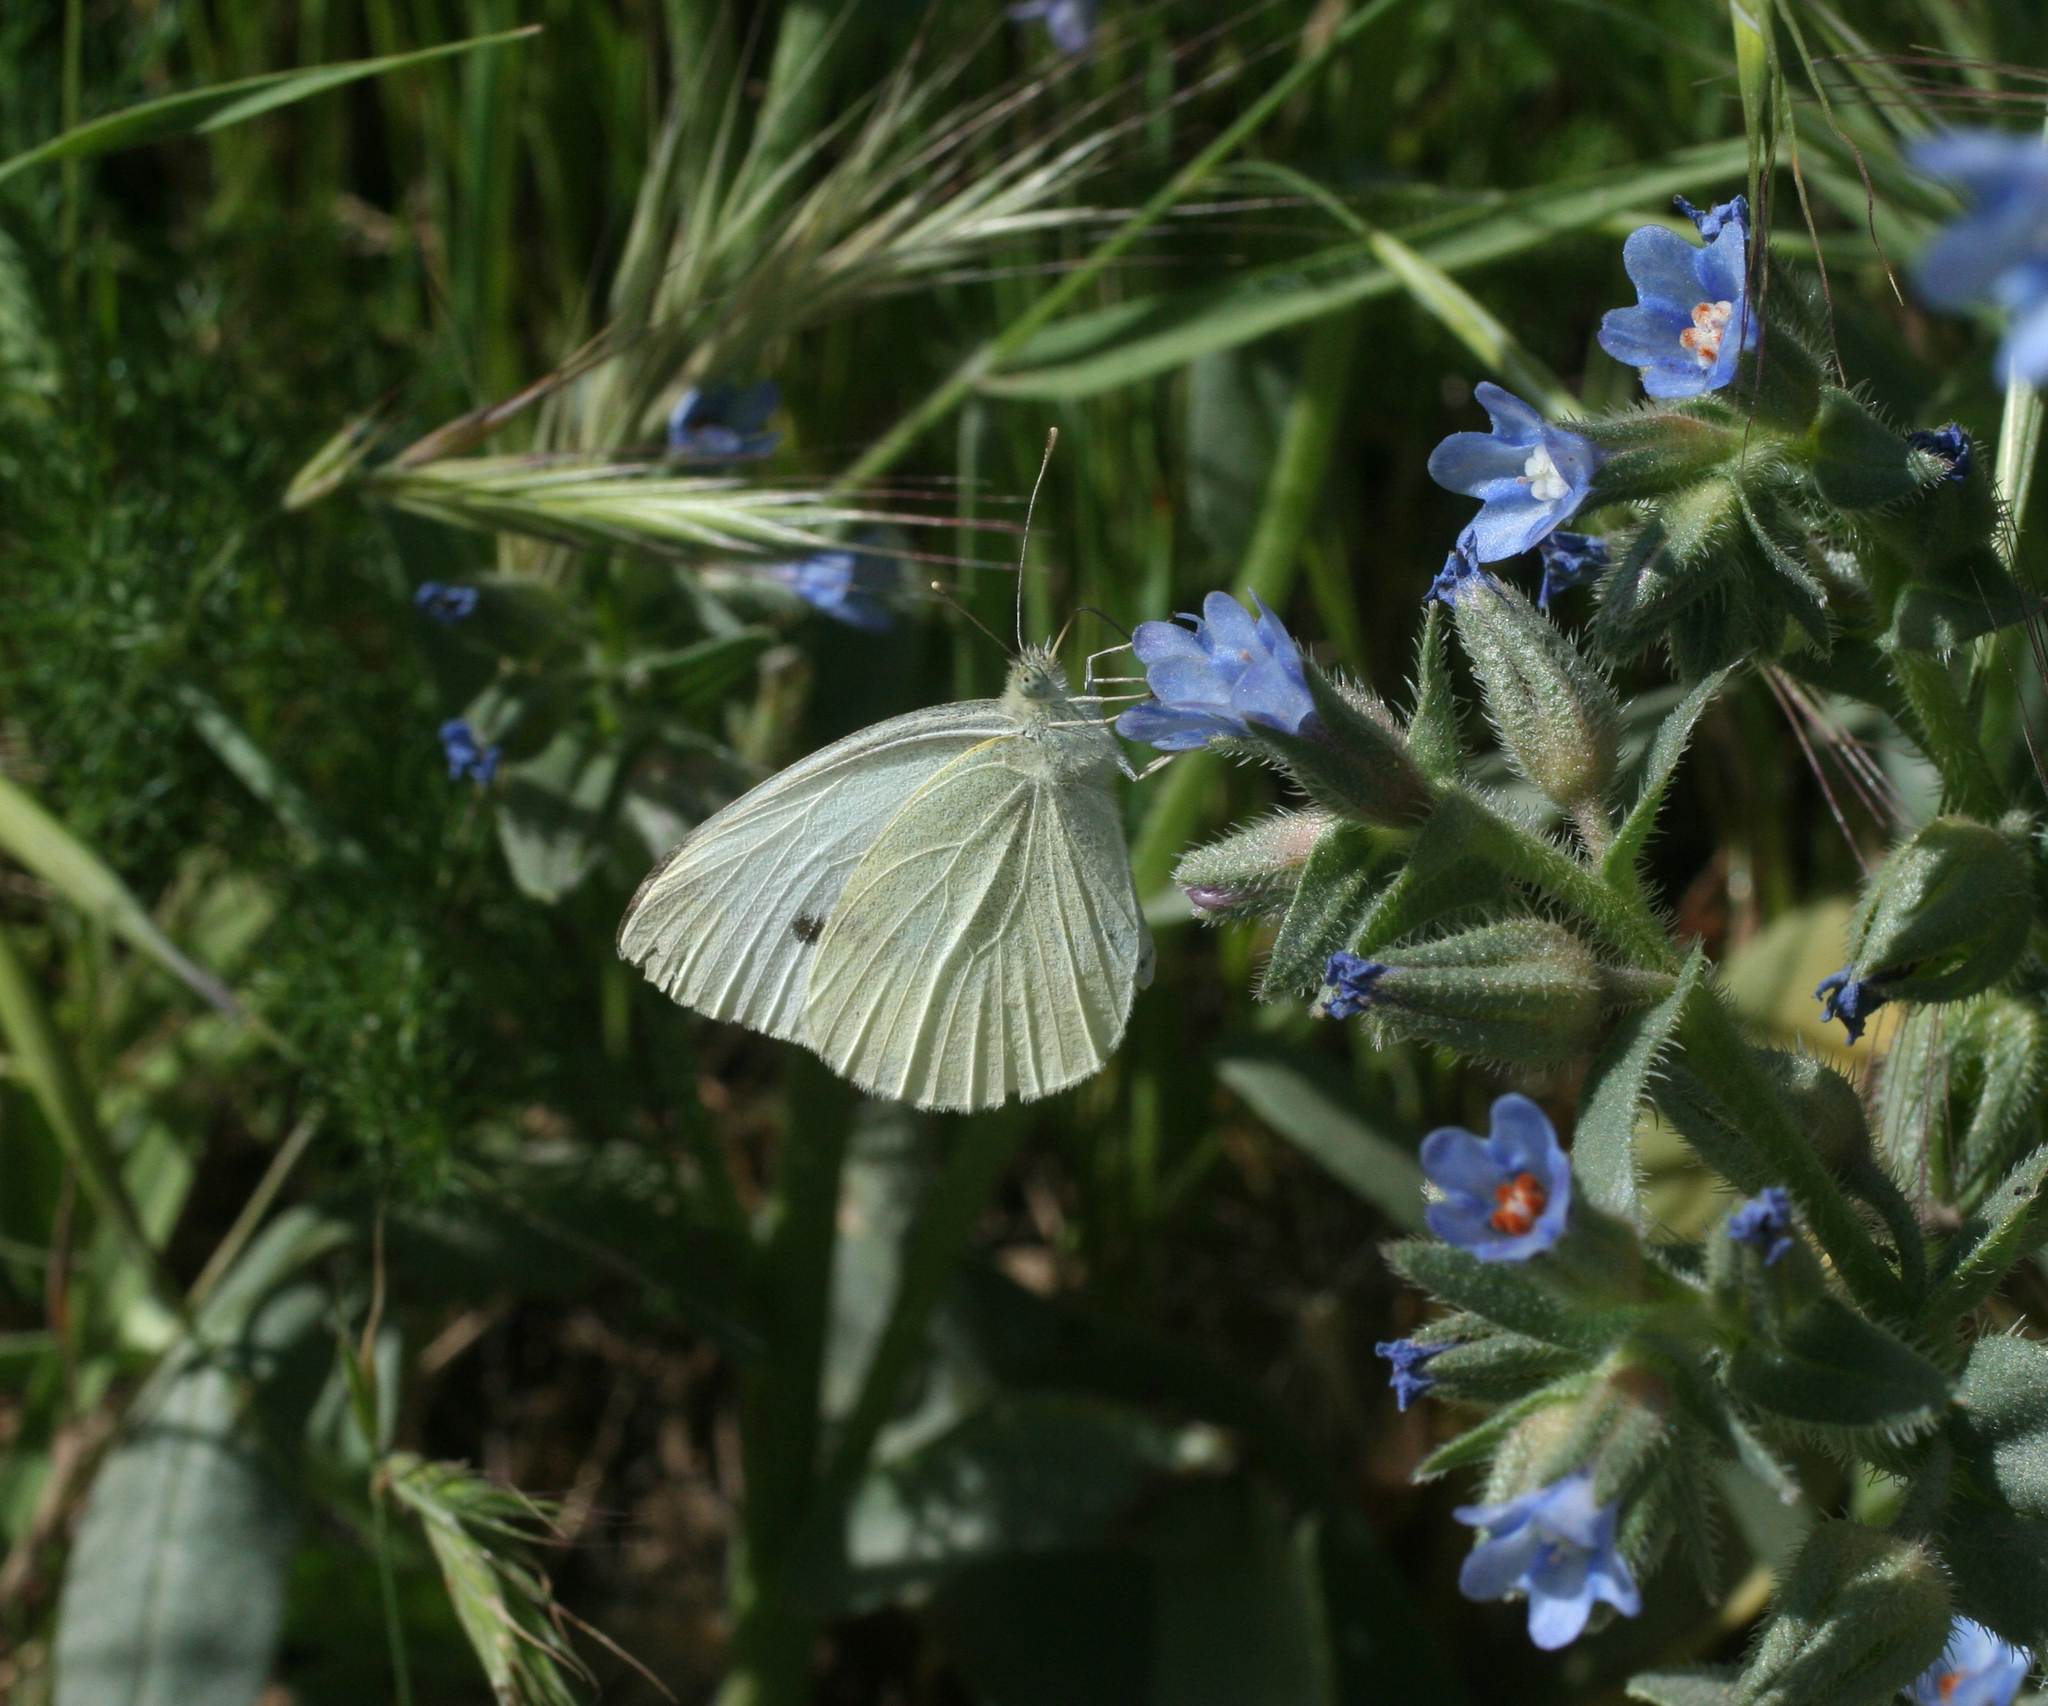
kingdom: Animalia
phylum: Arthropoda
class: Insecta
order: Lepidoptera
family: Pieridae
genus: Pieris
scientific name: Pieris rapae
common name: Small white
